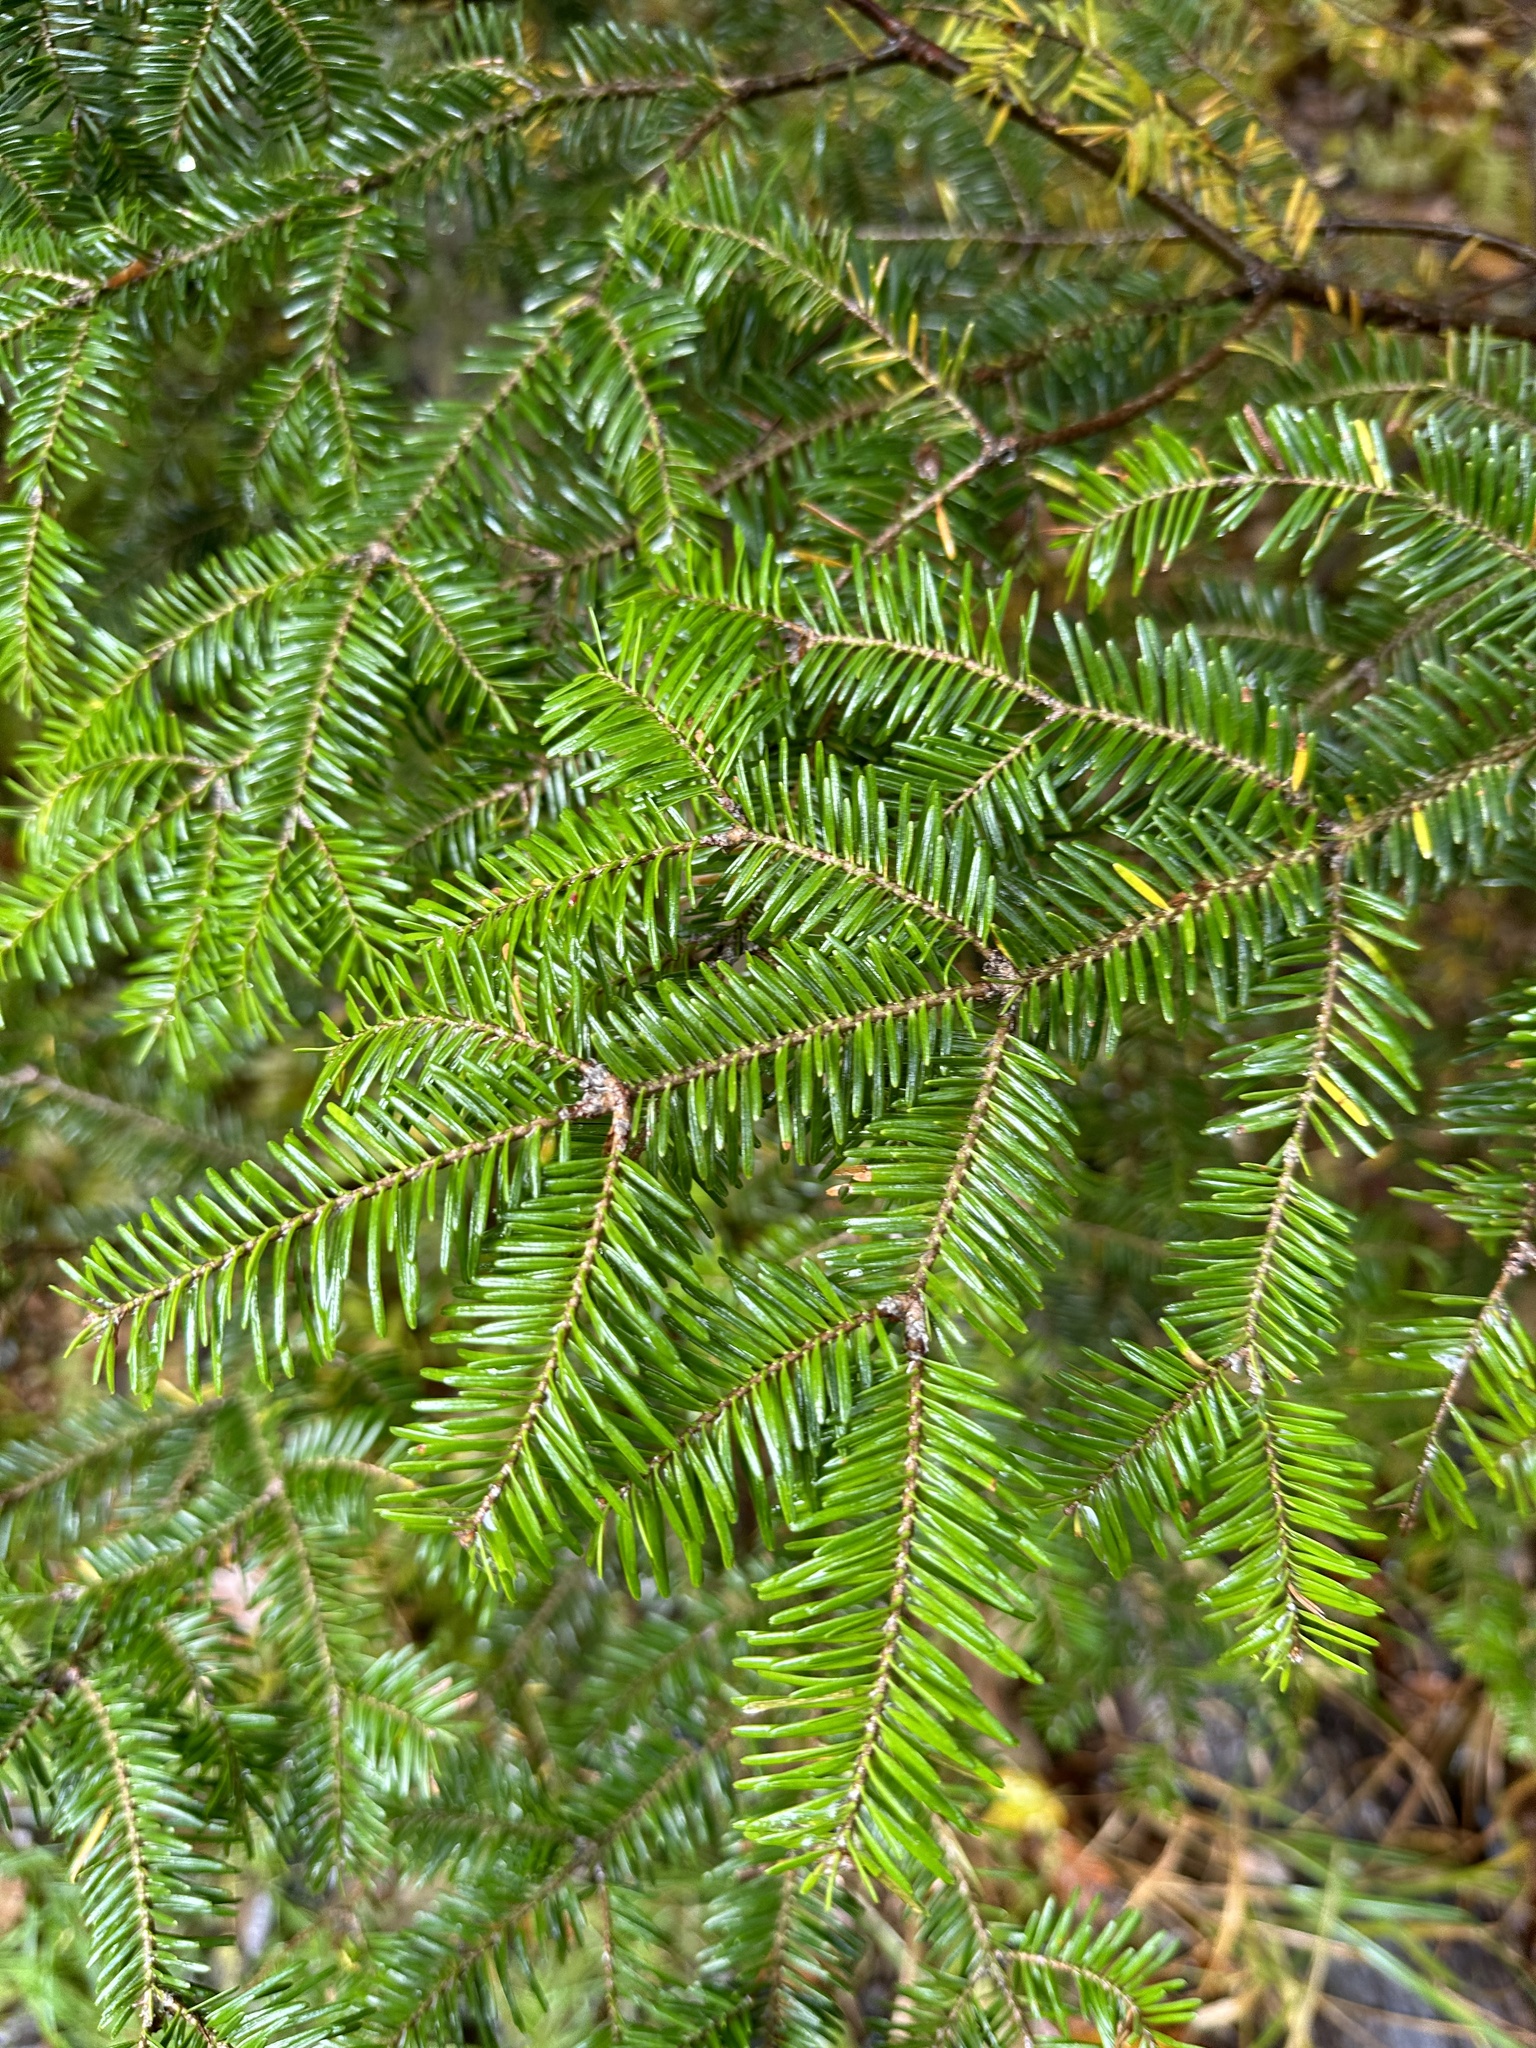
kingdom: Plantae
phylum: Tracheophyta
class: Pinopsida
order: Pinales
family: Pinaceae
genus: Abies
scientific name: Abies balsamea
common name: Balsam fir
